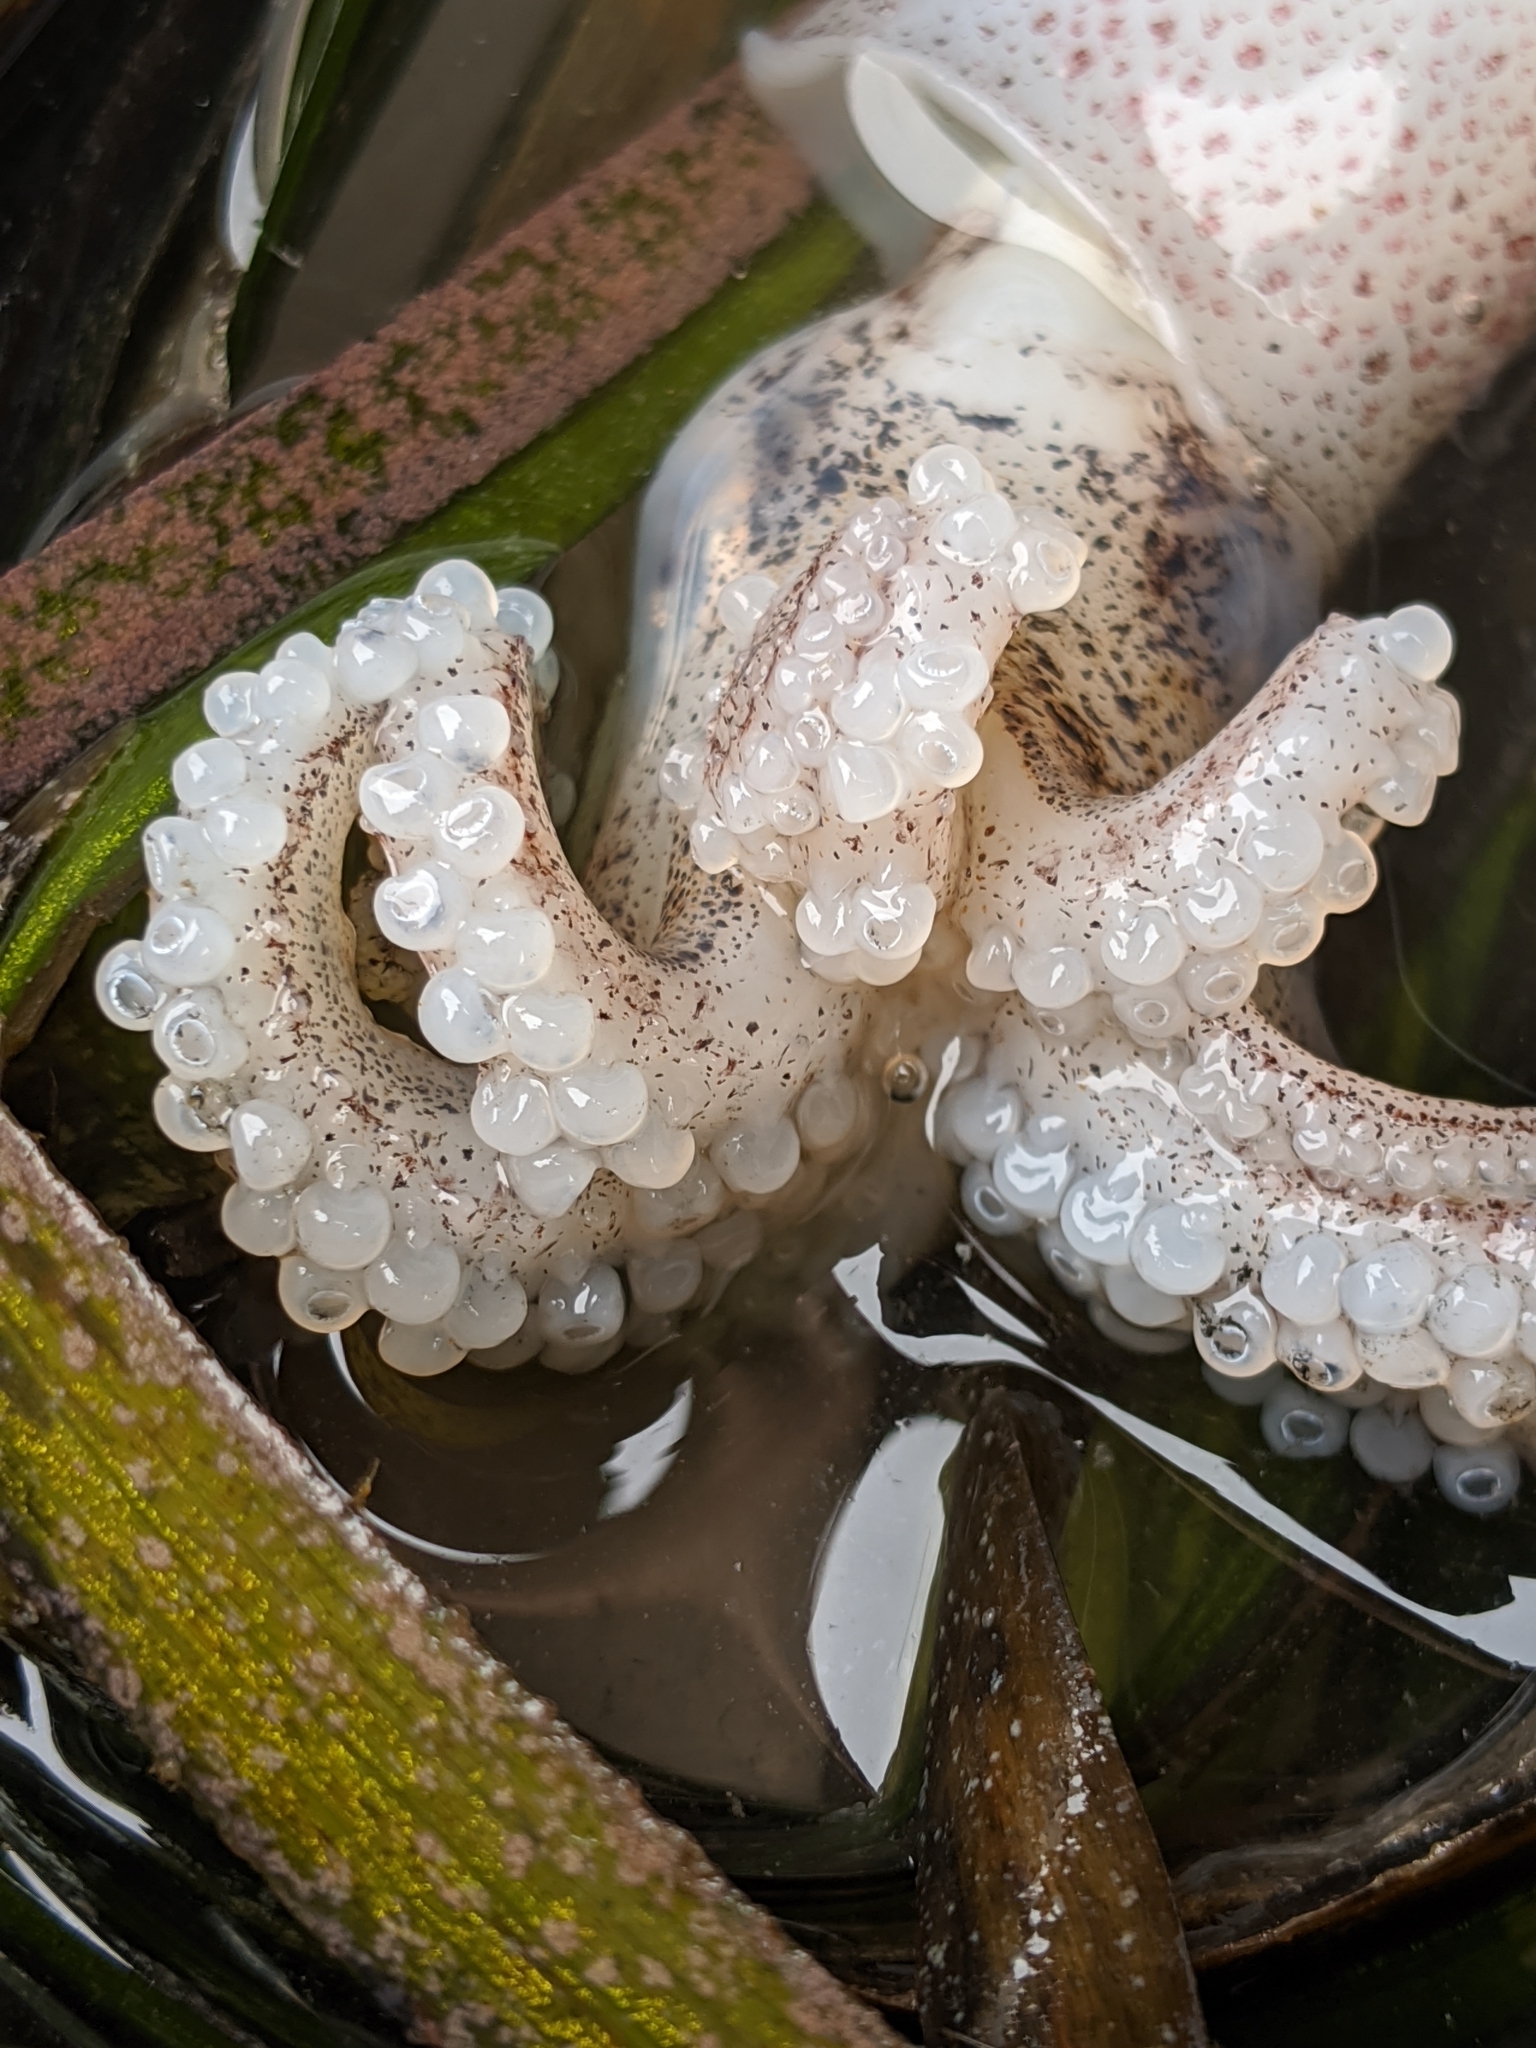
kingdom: Animalia
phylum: Mollusca
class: Cephalopoda
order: Myopsida
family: Loliginidae
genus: Doryteuthis
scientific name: Doryteuthis opalescens
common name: Opalescent inshore squid
